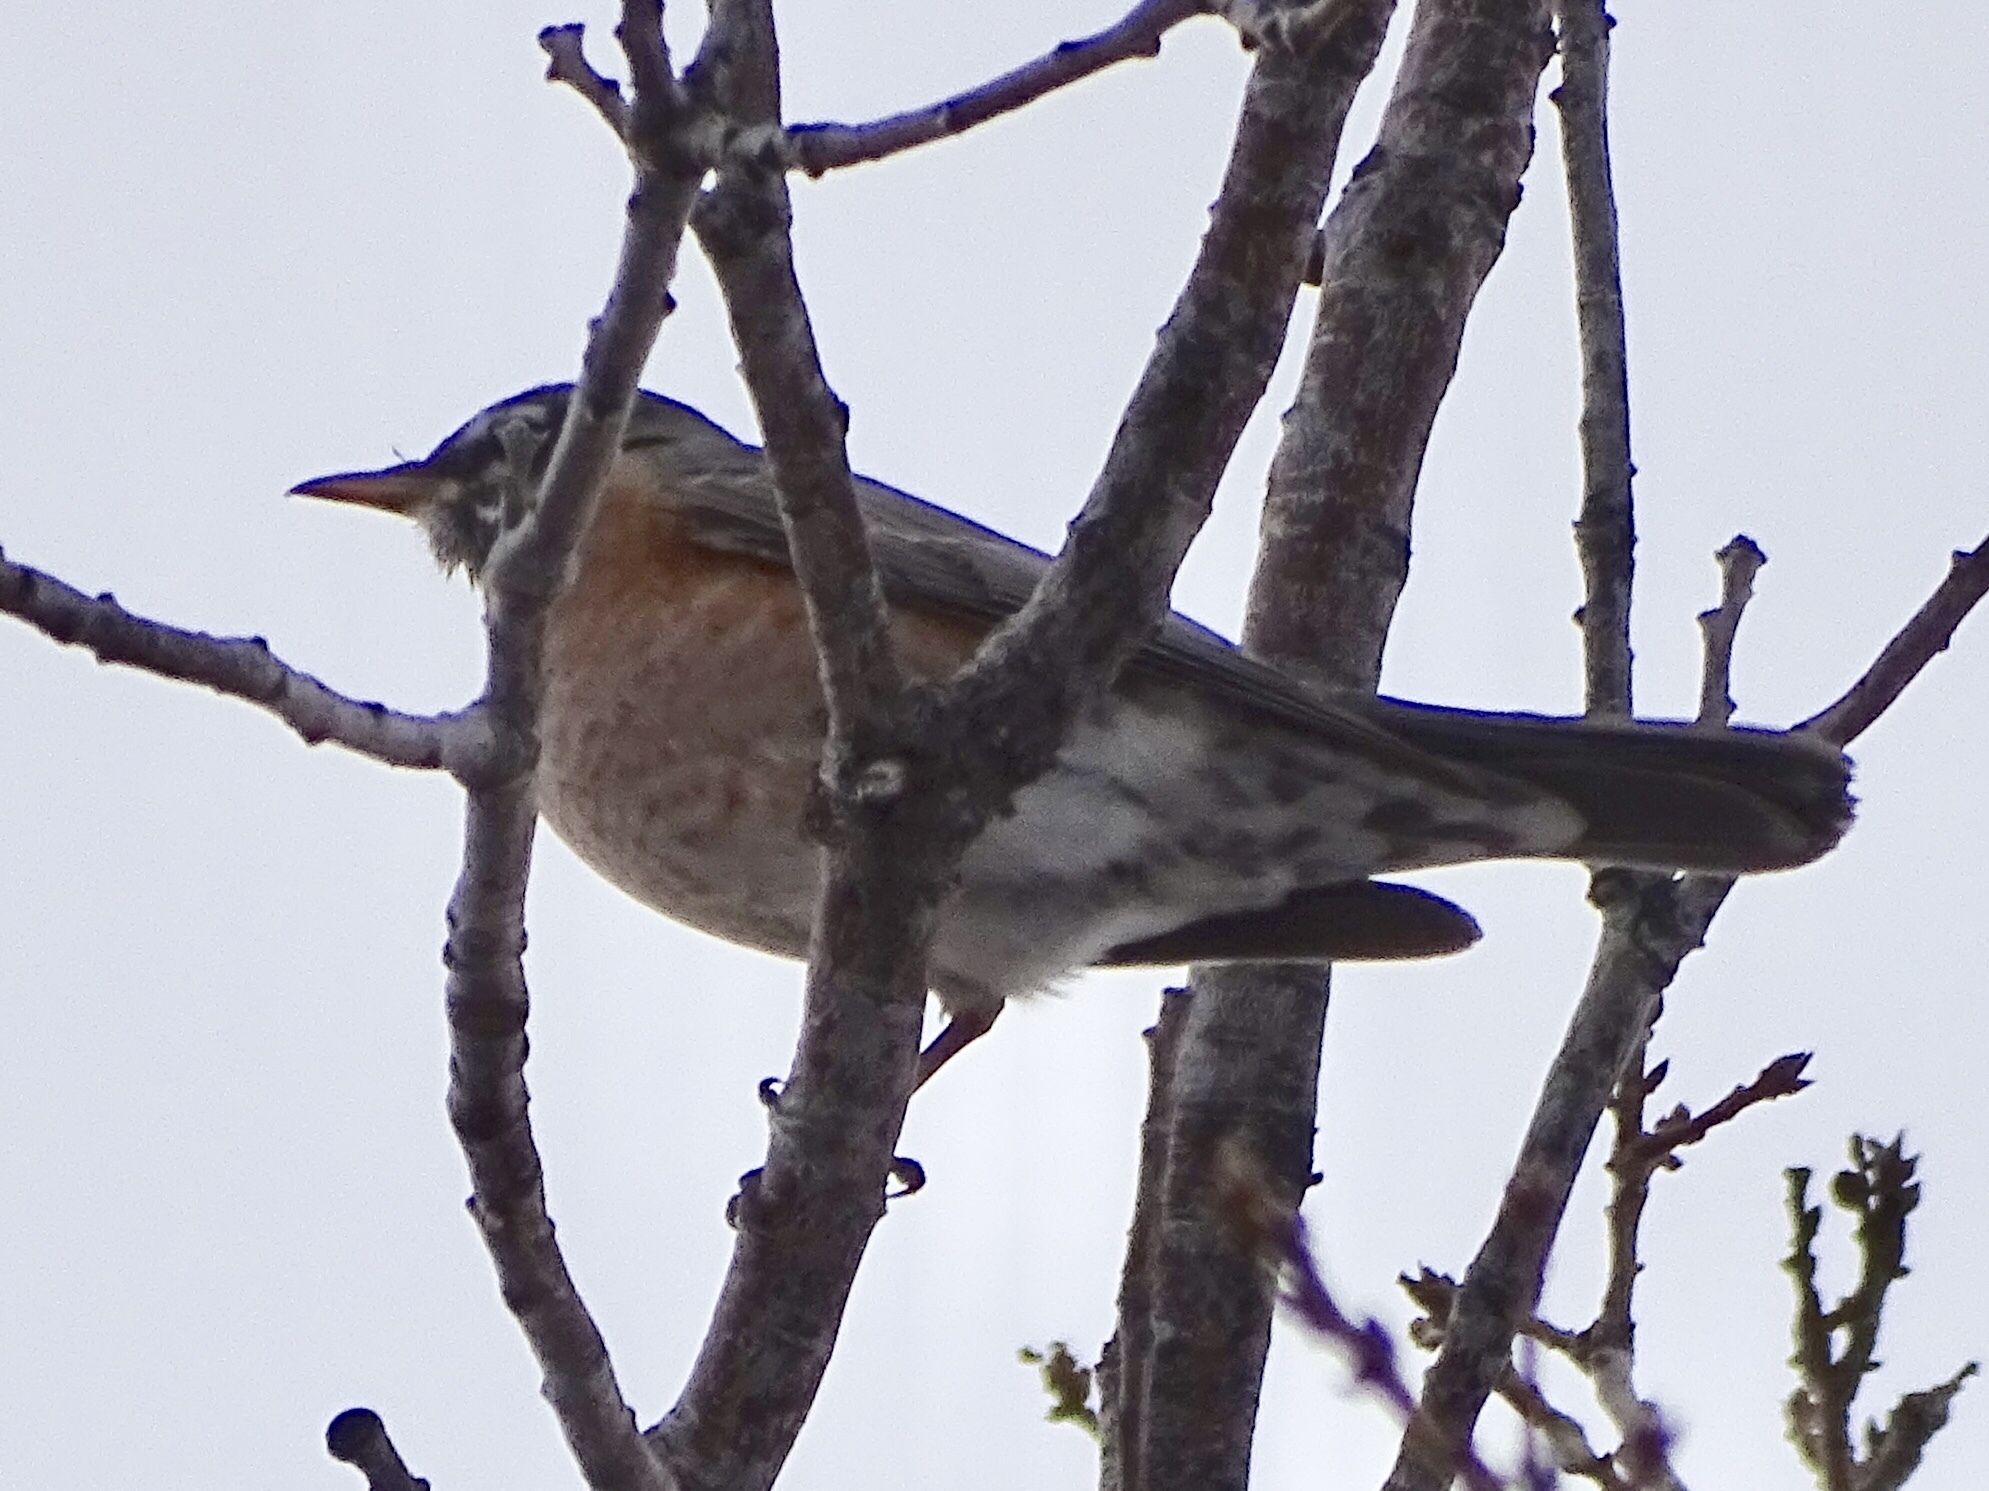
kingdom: Animalia
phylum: Chordata
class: Aves
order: Passeriformes
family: Turdidae
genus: Turdus
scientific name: Turdus migratorius
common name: American robin
